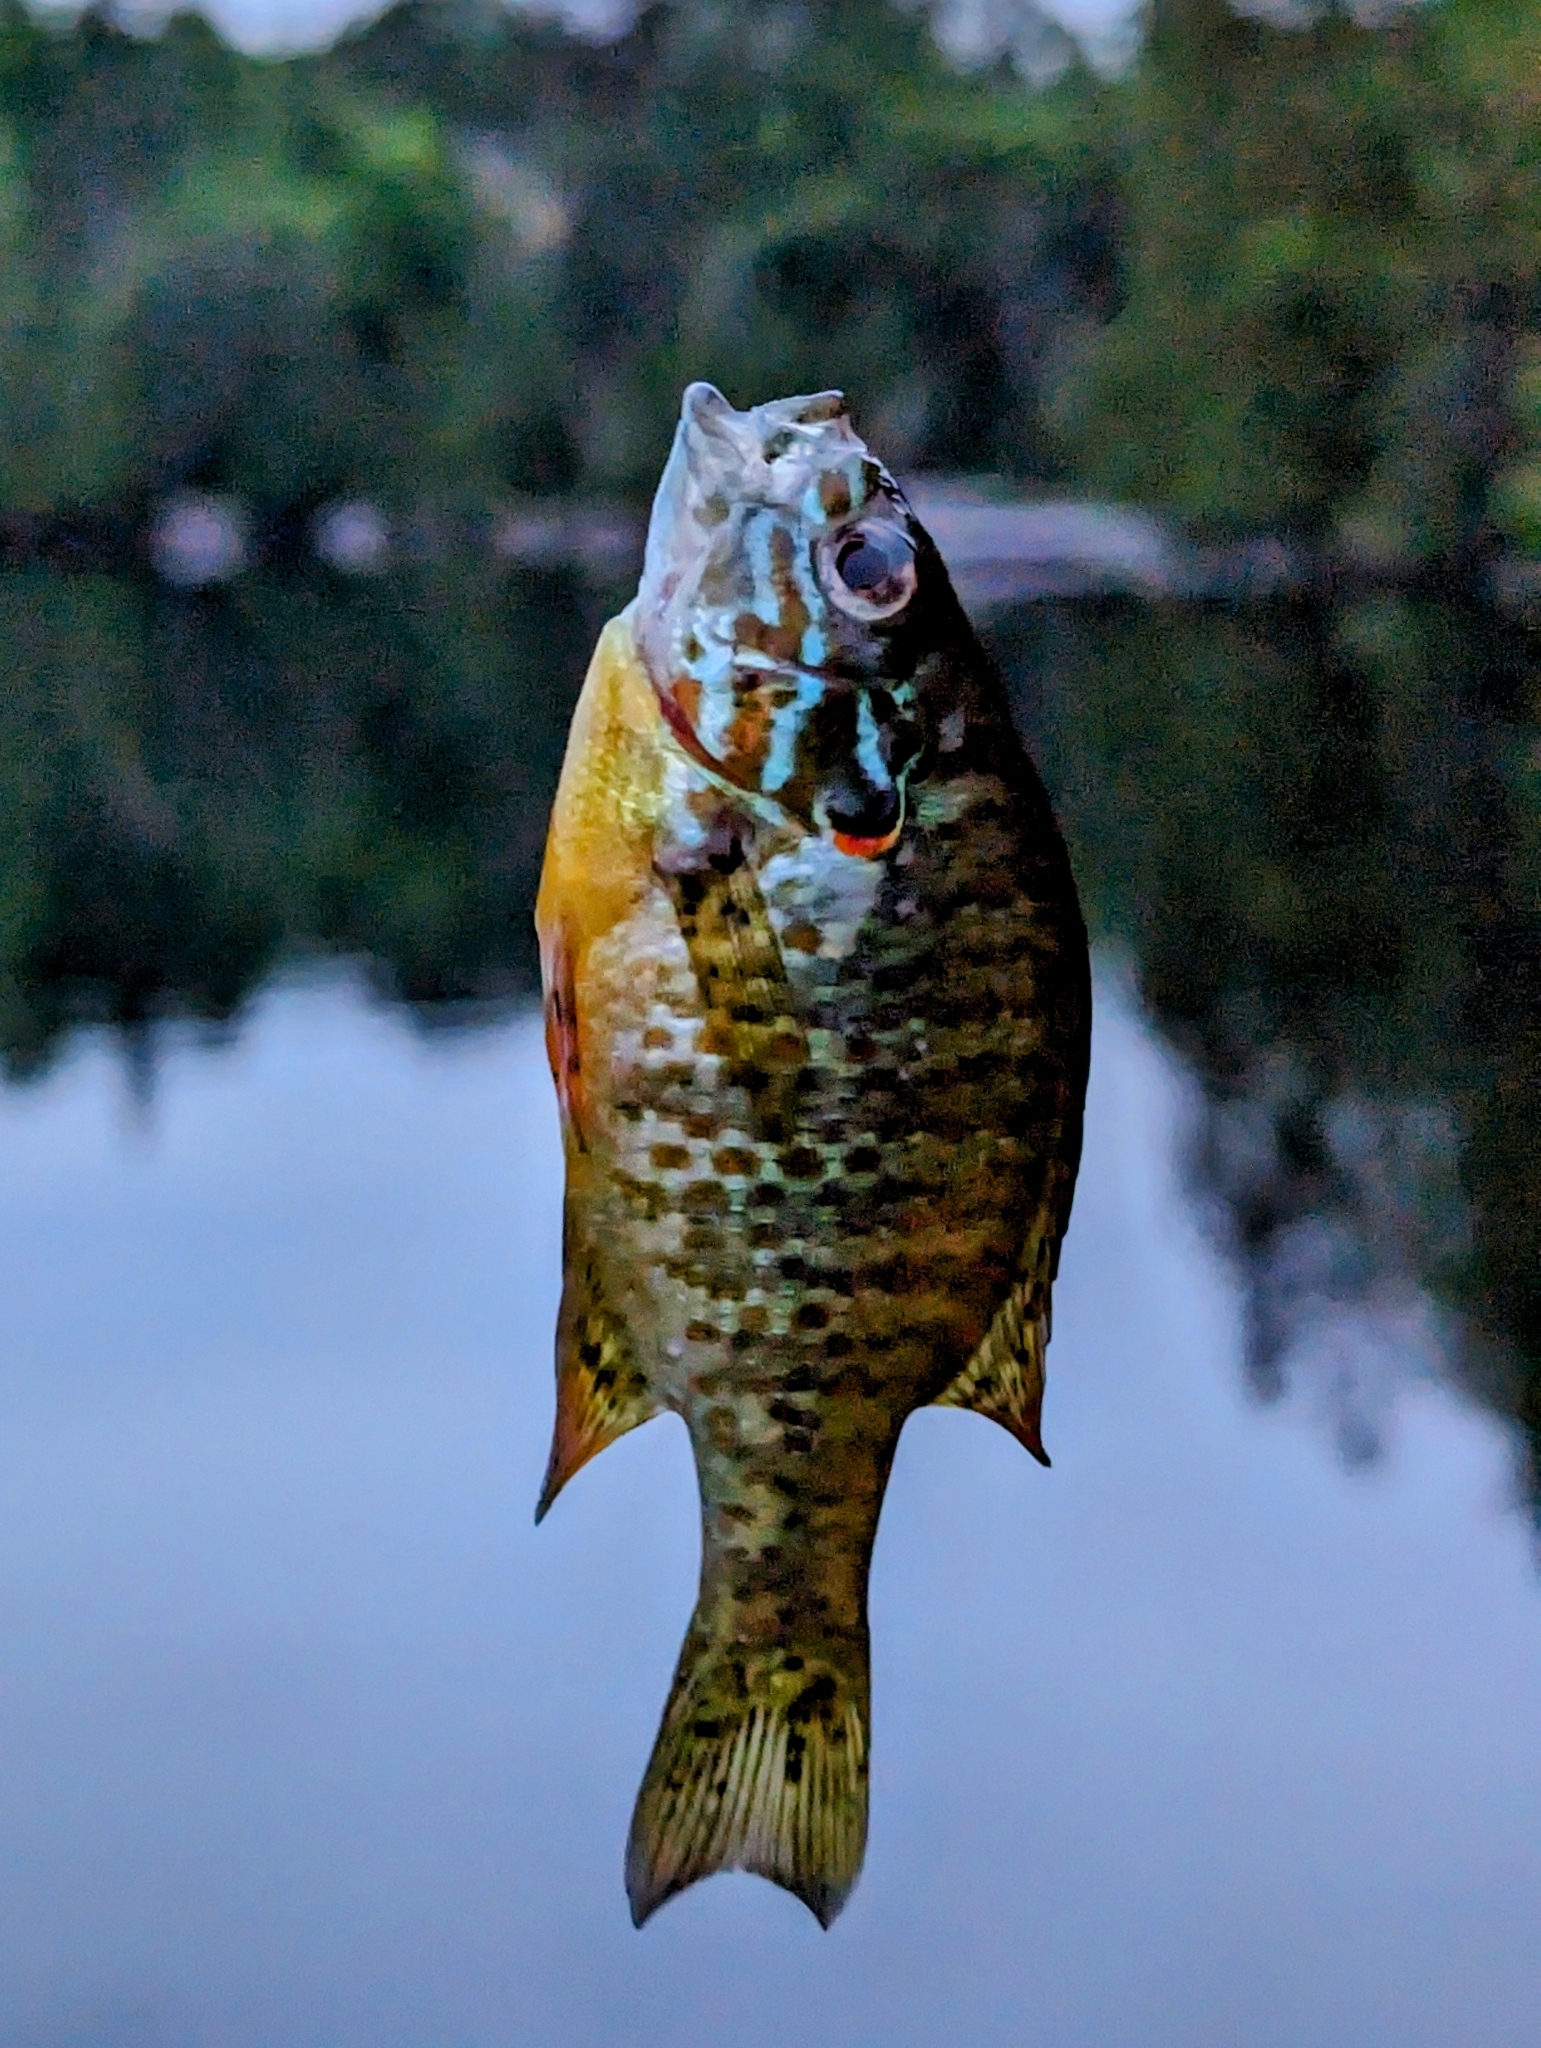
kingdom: Animalia
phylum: Chordata
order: Perciformes
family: Centrarchidae
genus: Lepomis
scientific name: Lepomis gibbosus
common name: Pumpkinseed
